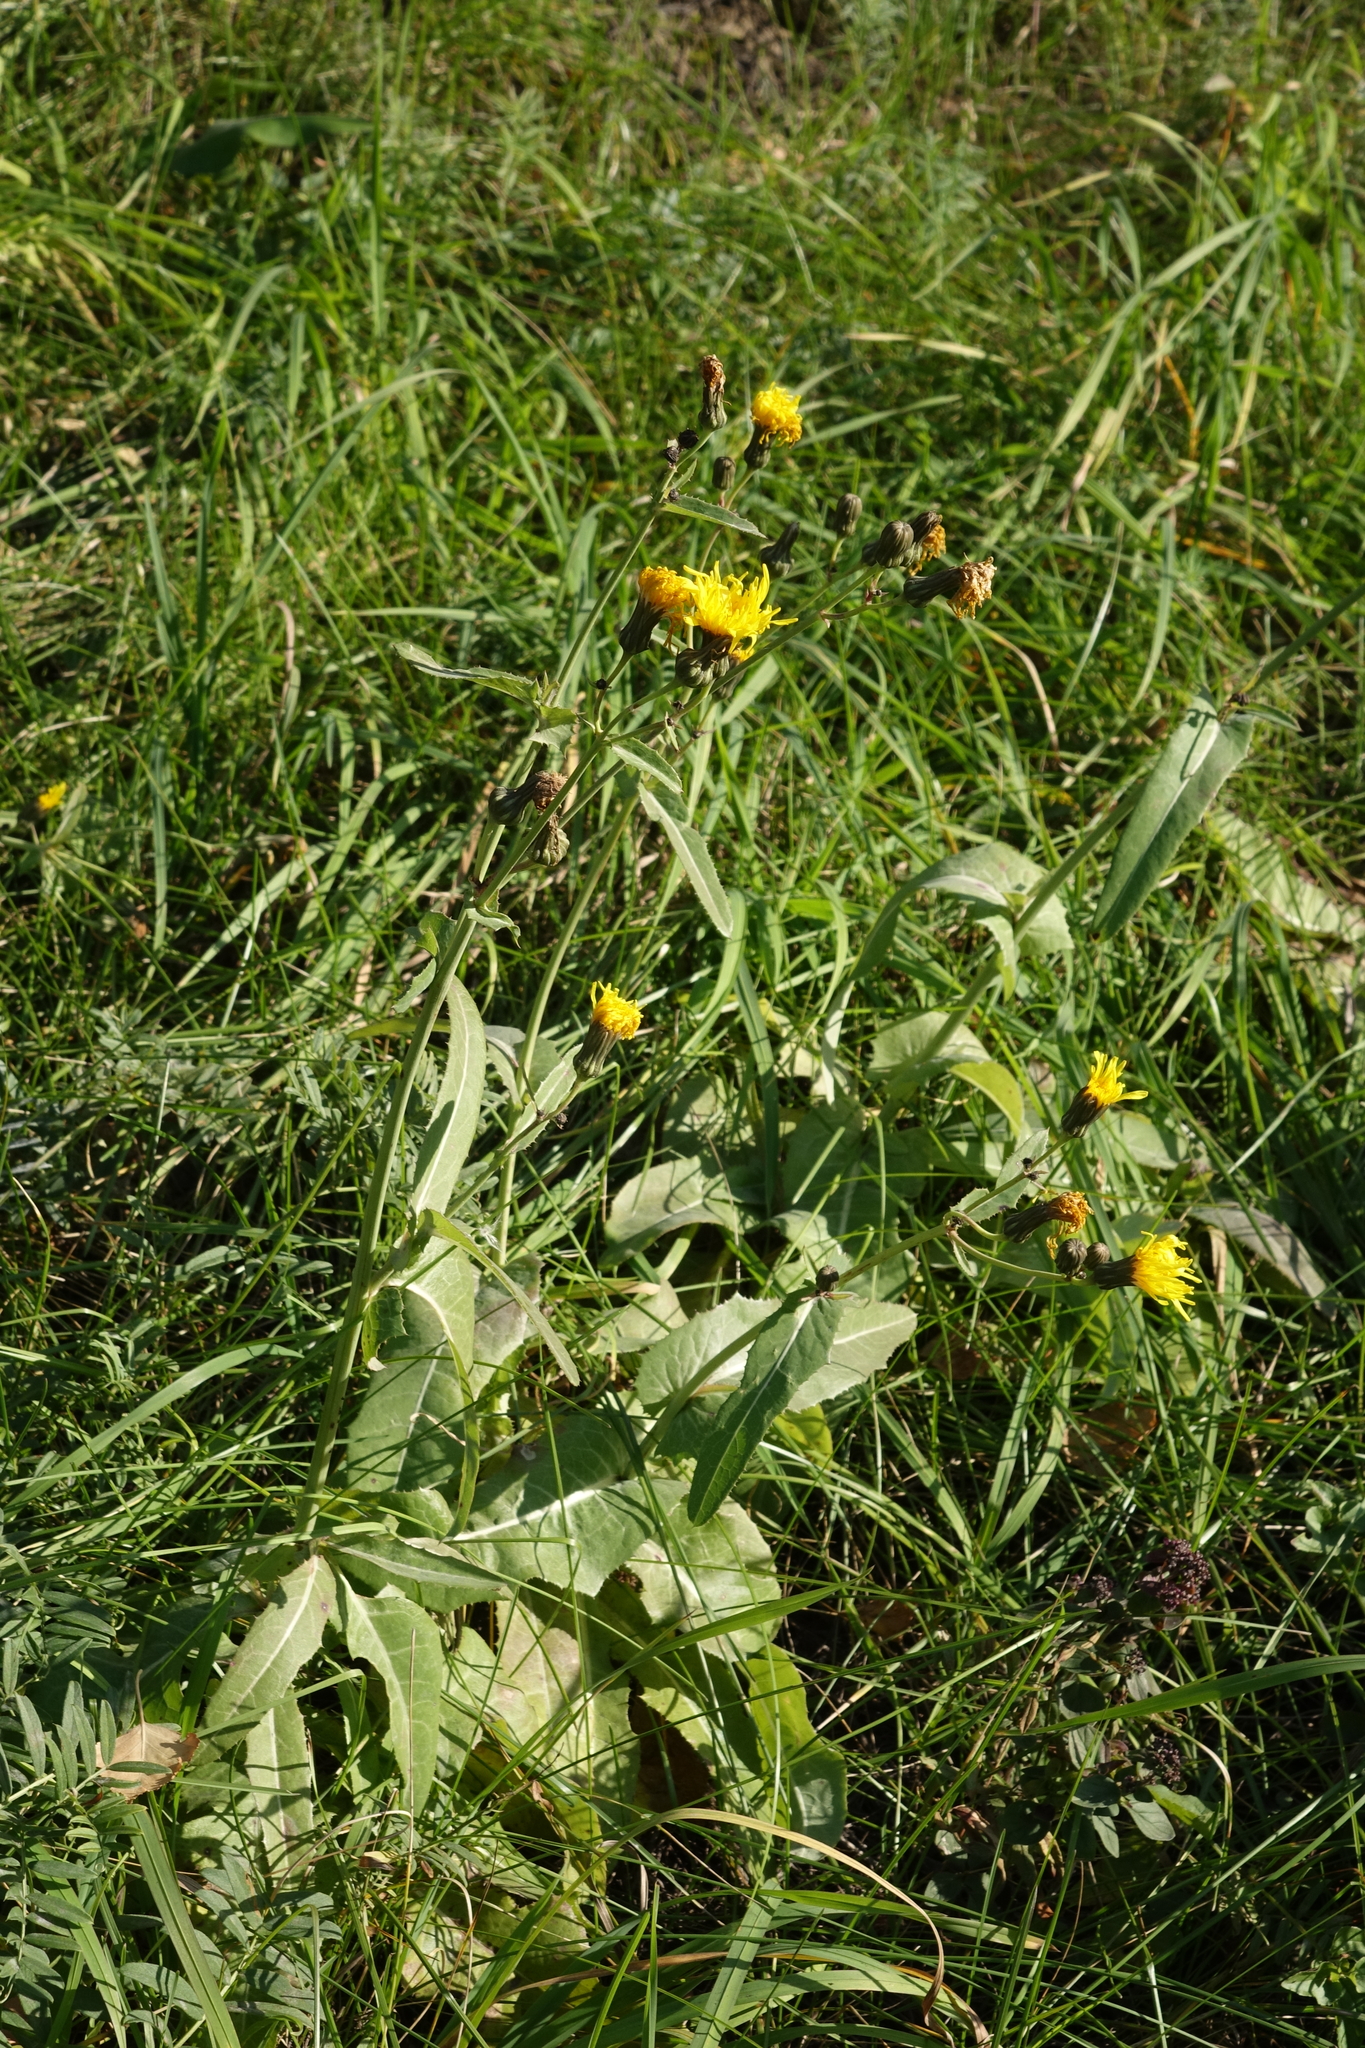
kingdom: Plantae
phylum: Tracheophyta
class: Magnoliopsida
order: Asterales
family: Asteraceae
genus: Sonchus
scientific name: Sonchus arvensis
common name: Perennial sow-thistle
